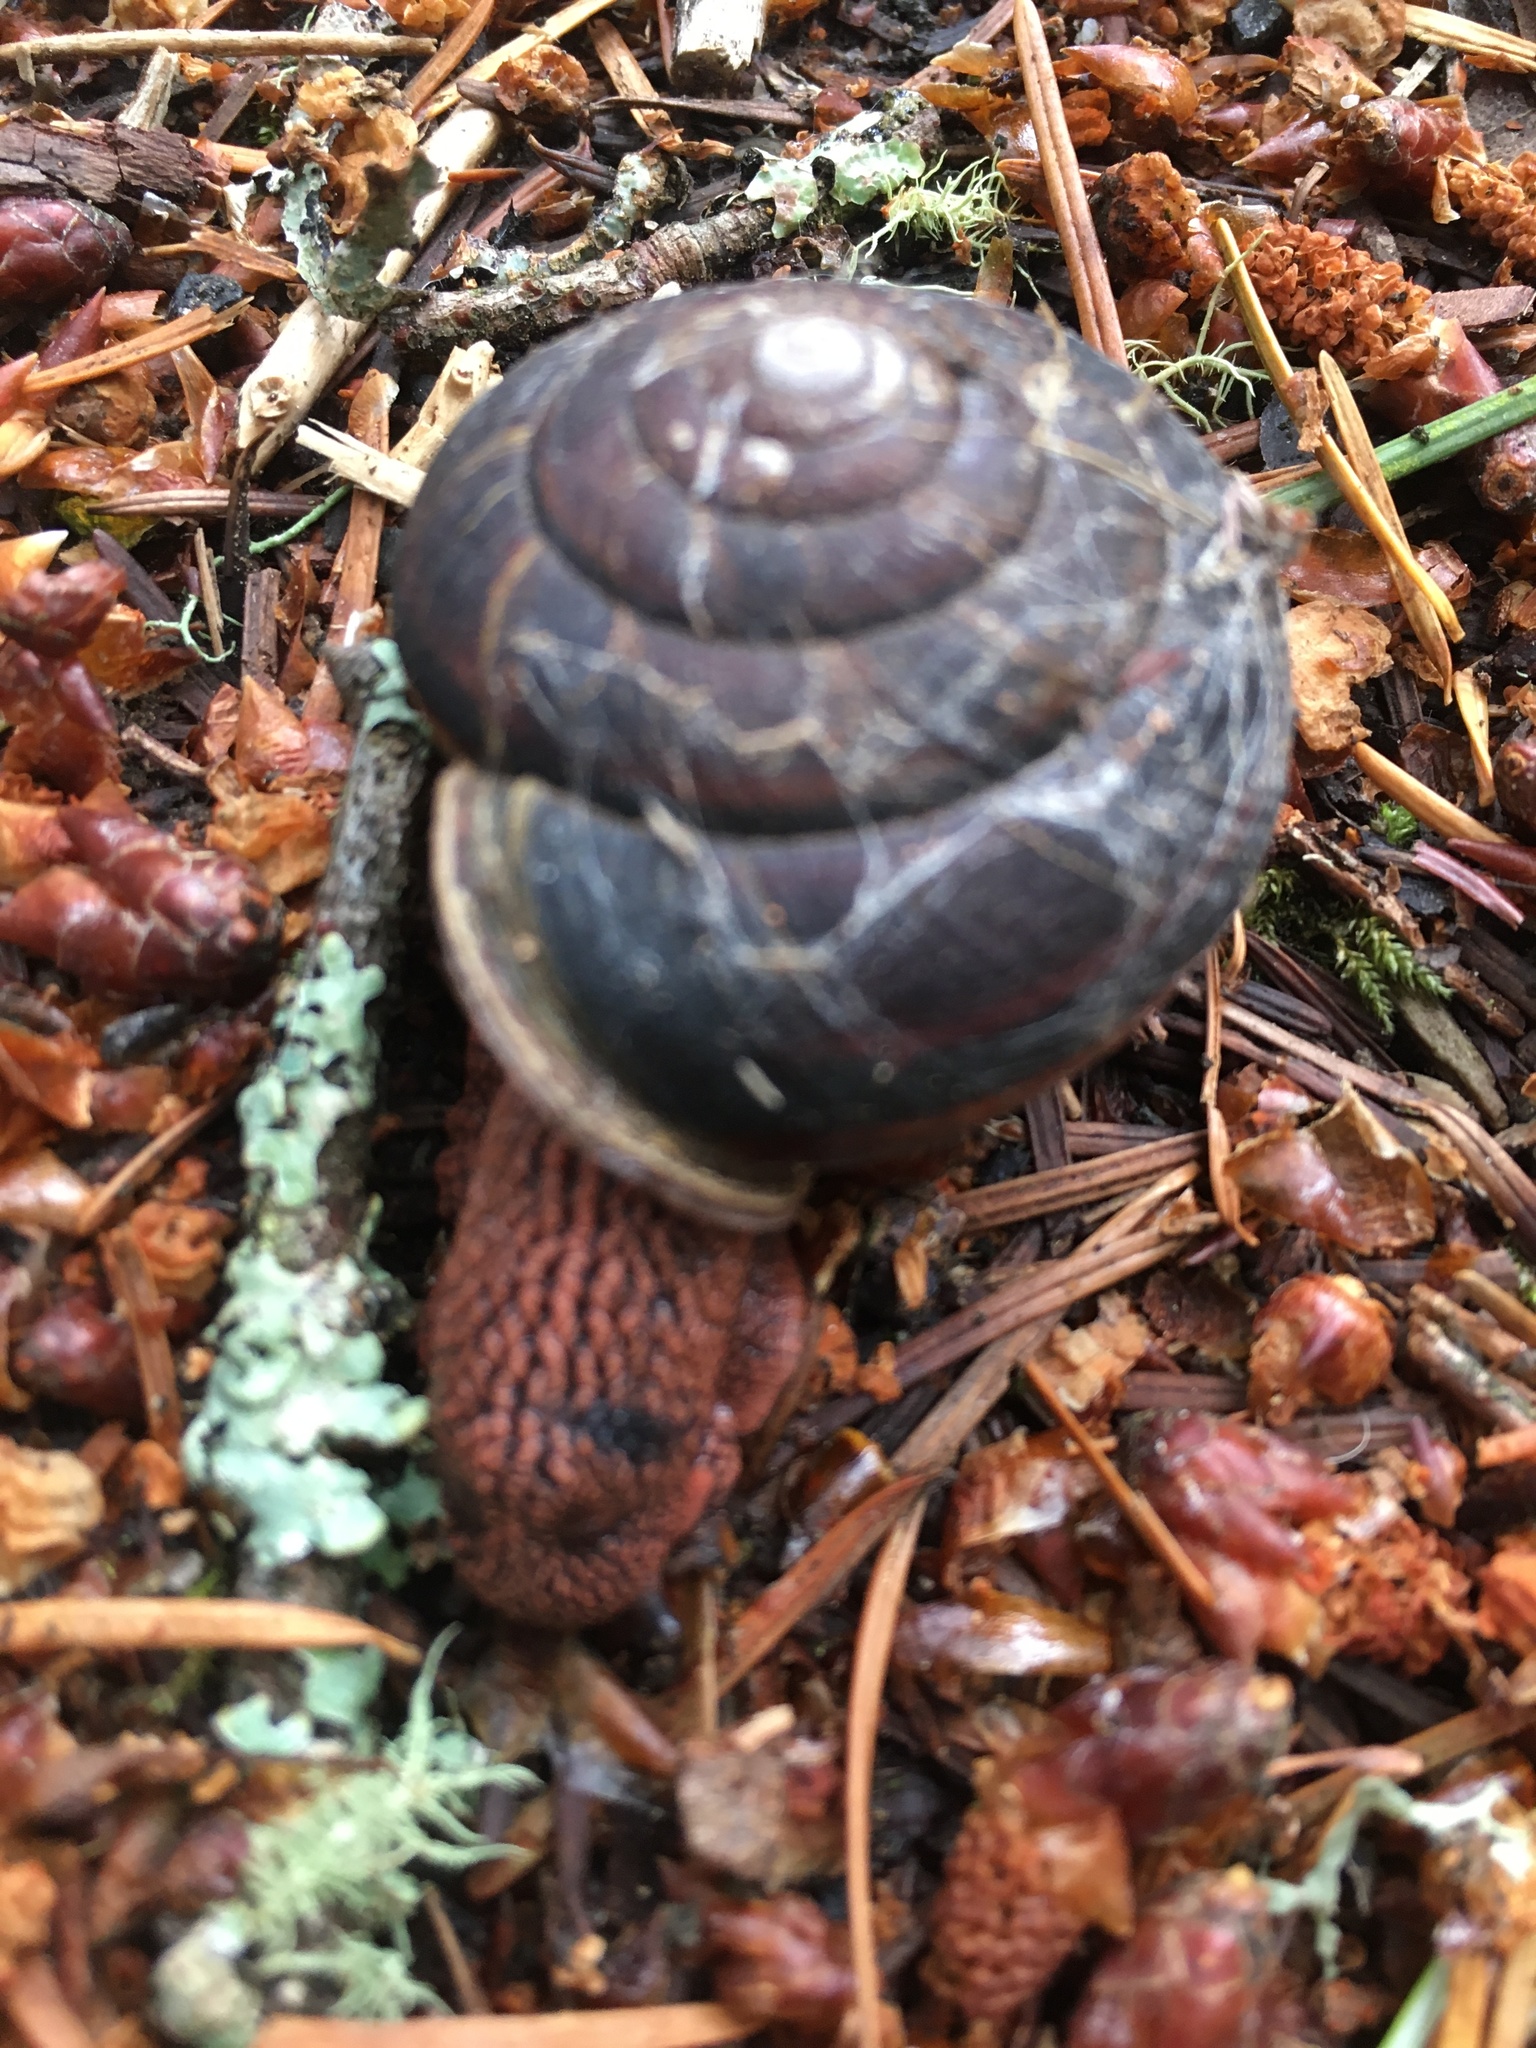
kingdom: Animalia
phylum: Mollusca
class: Gastropoda
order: Stylommatophora
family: Xanthonychidae
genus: Monadenia
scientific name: Monadenia fidelis
